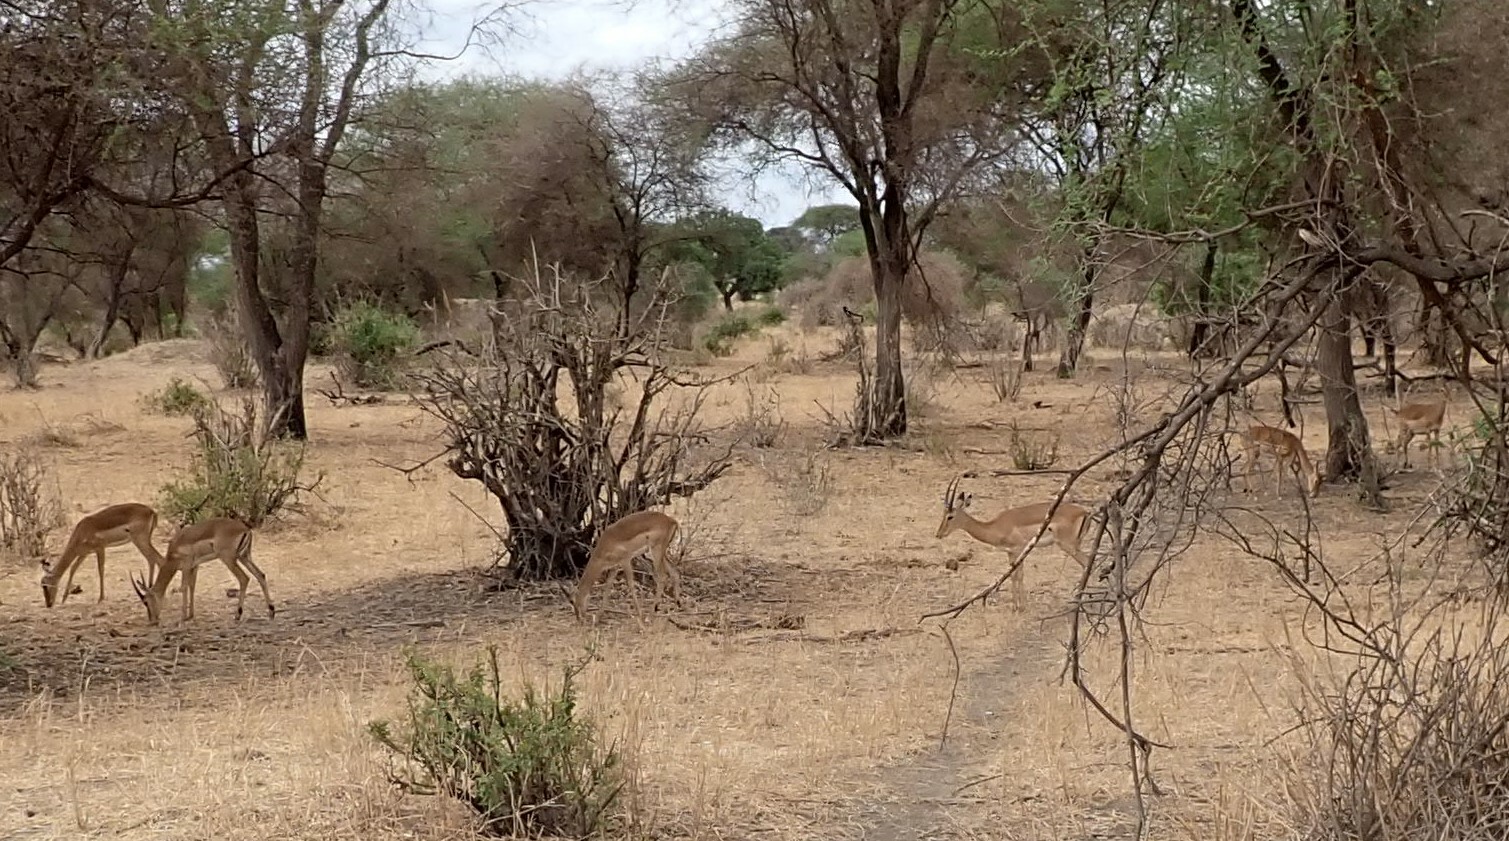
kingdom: Animalia
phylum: Chordata
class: Mammalia
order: Artiodactyla
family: Bovidae
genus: Aepyceros
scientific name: Aepyceros melampus
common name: Impala
